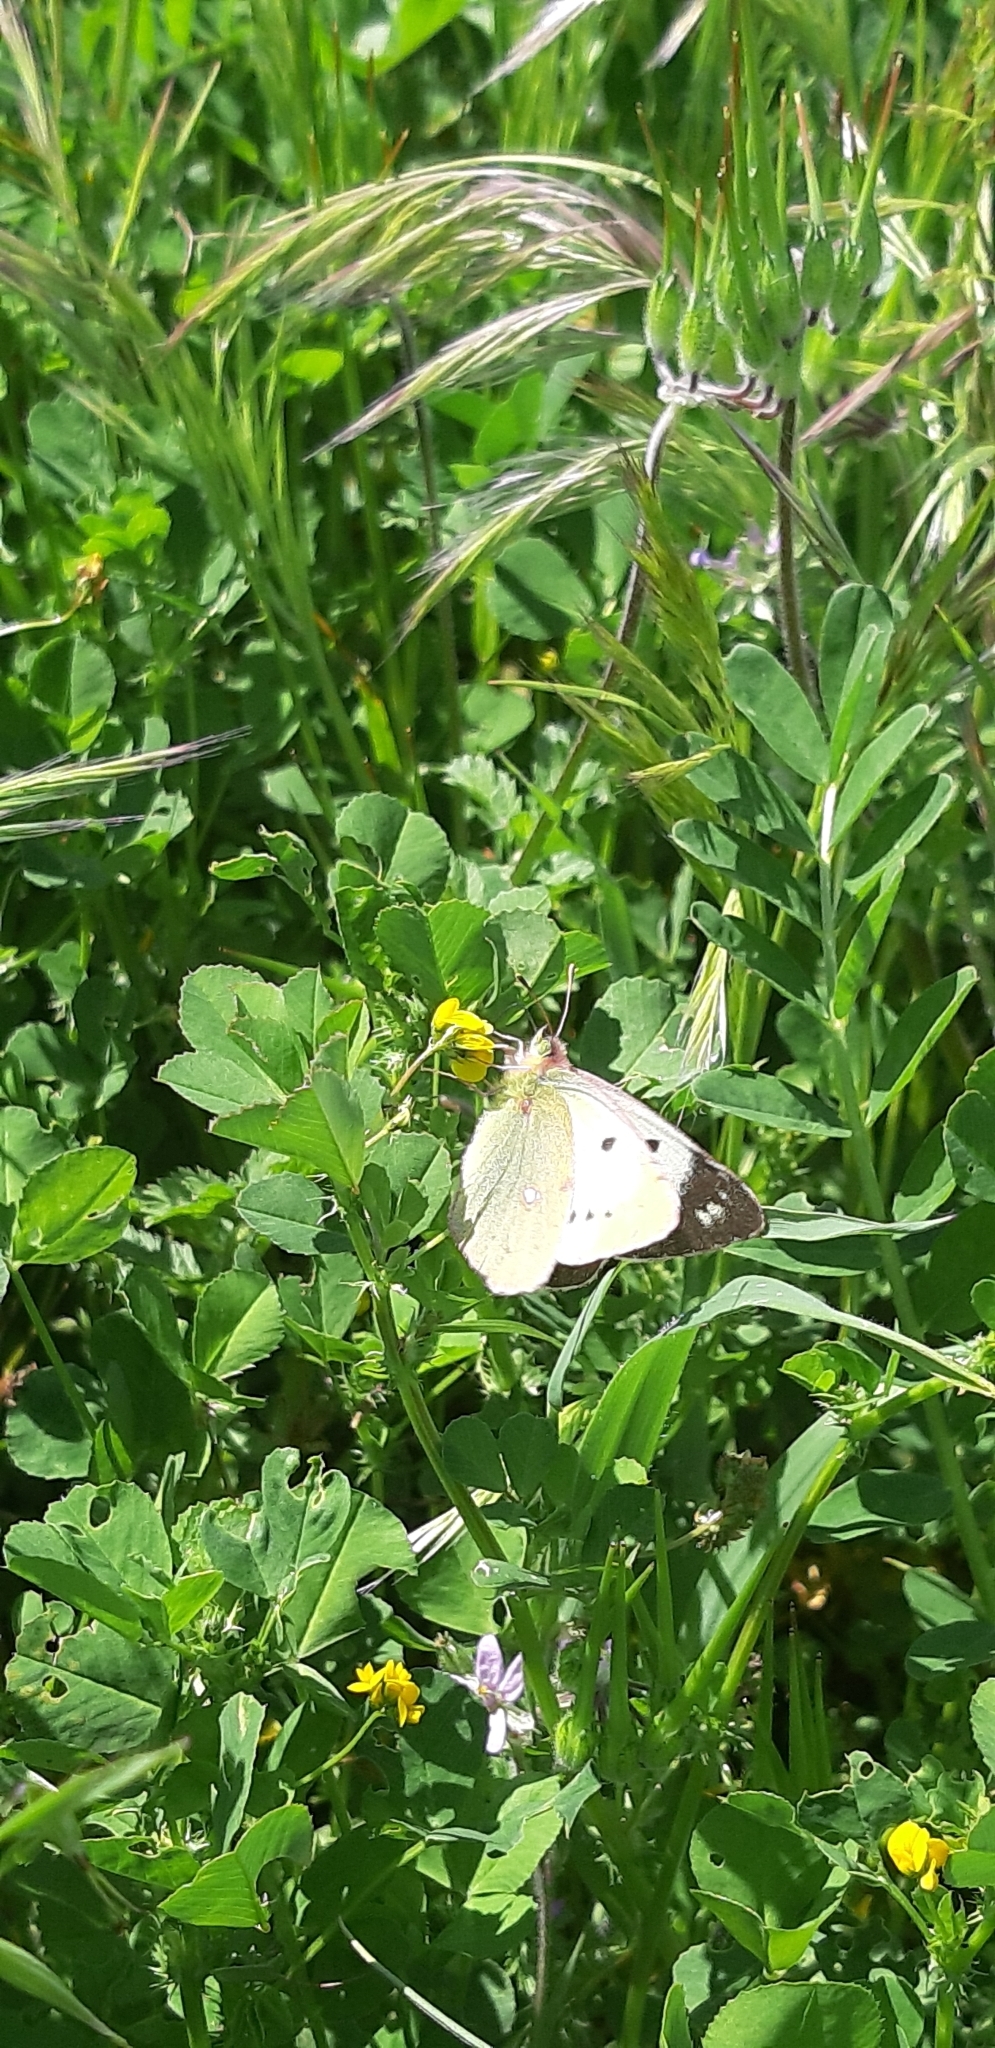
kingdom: Animalia
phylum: Arthropoda
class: Insecta
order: Lepidoptera
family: Pieridae
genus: Colias
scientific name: Colias croceus
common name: Clouded yellow
